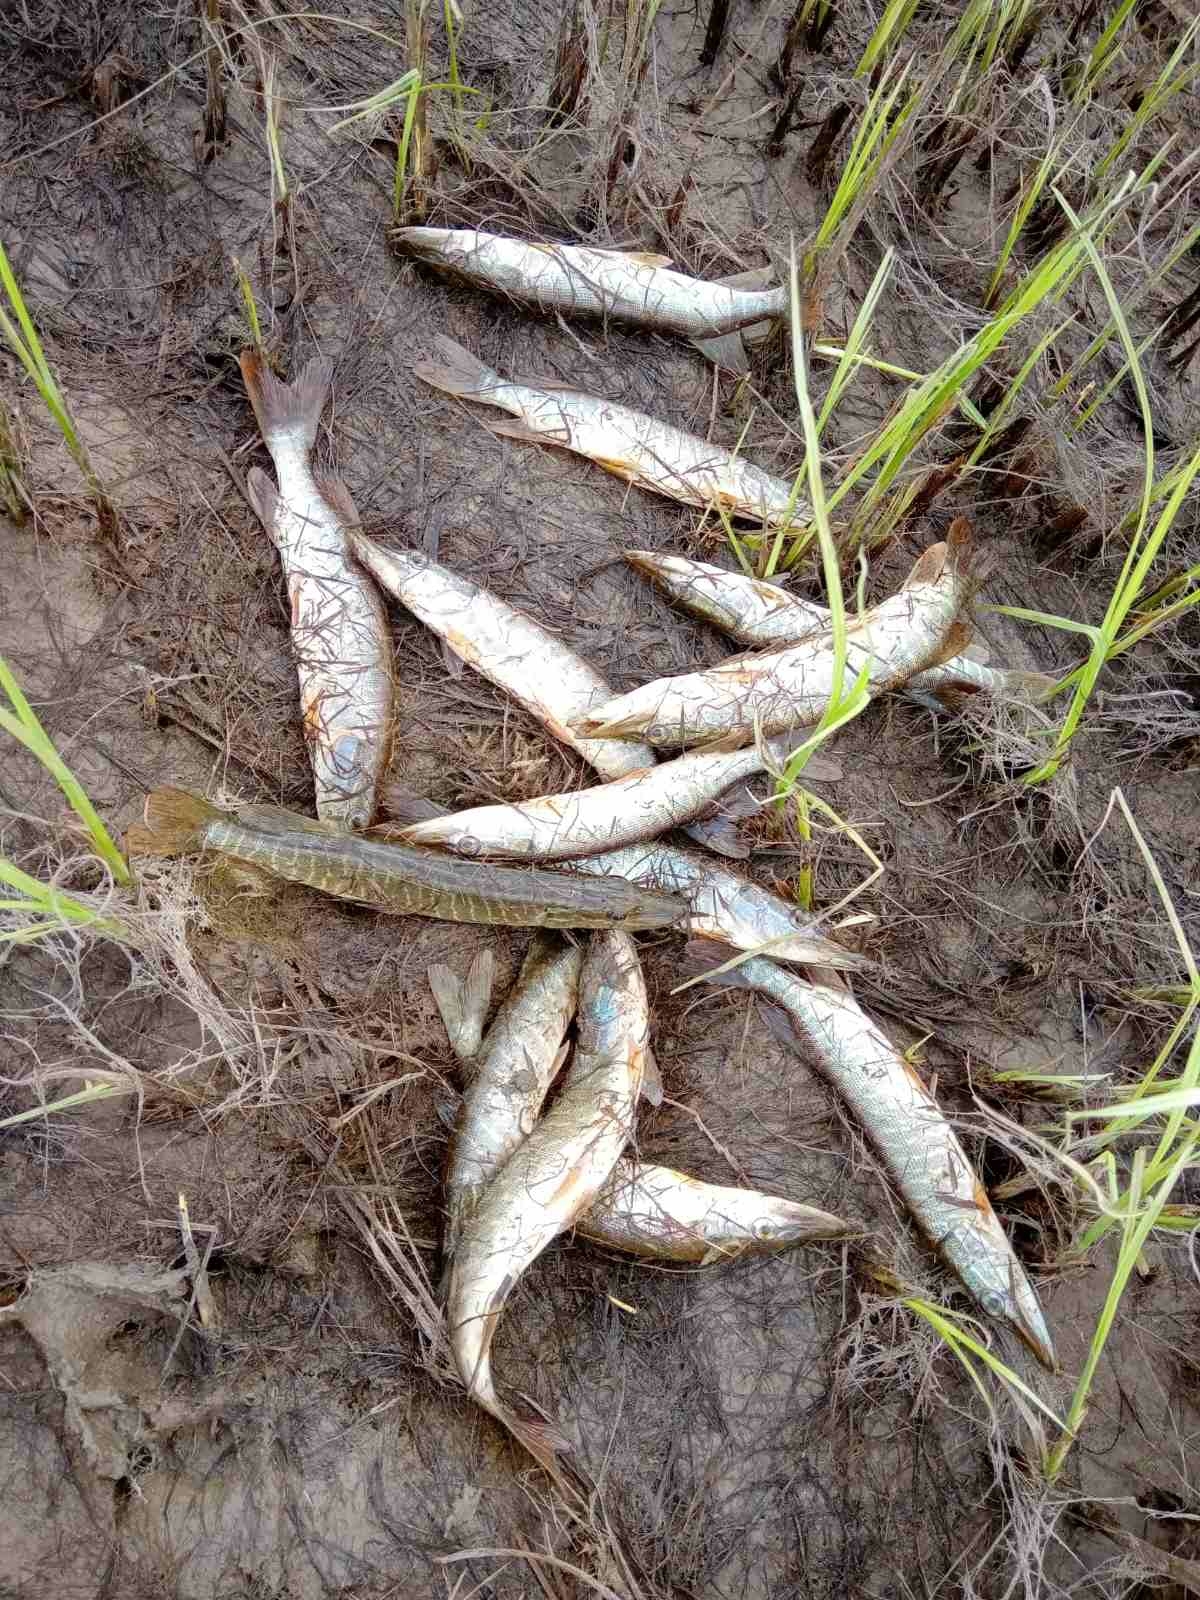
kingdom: Animalia
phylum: Chordata
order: Esociformes
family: Esocidae
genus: Esox
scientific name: Esox lucius
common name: Northern pike
